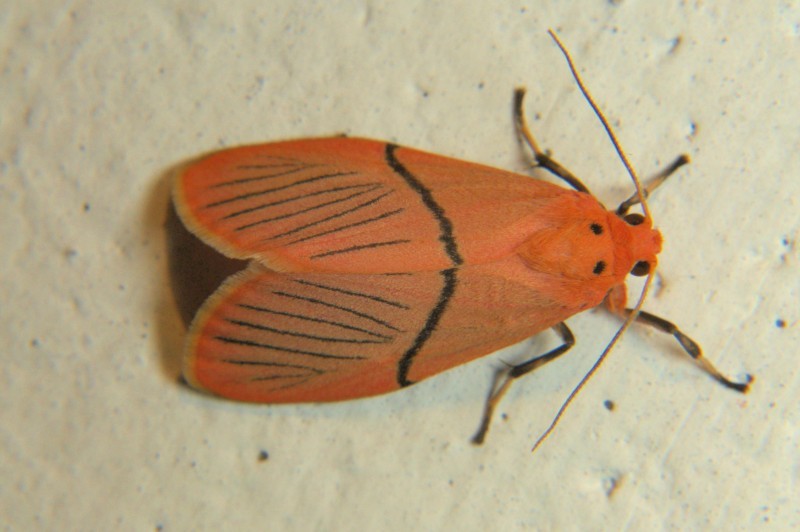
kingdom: Animalia
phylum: Arthropoda
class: Insecta
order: Lepidoptera
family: Erebidae
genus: Aberrasine
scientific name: Aberrasine strigivenata
